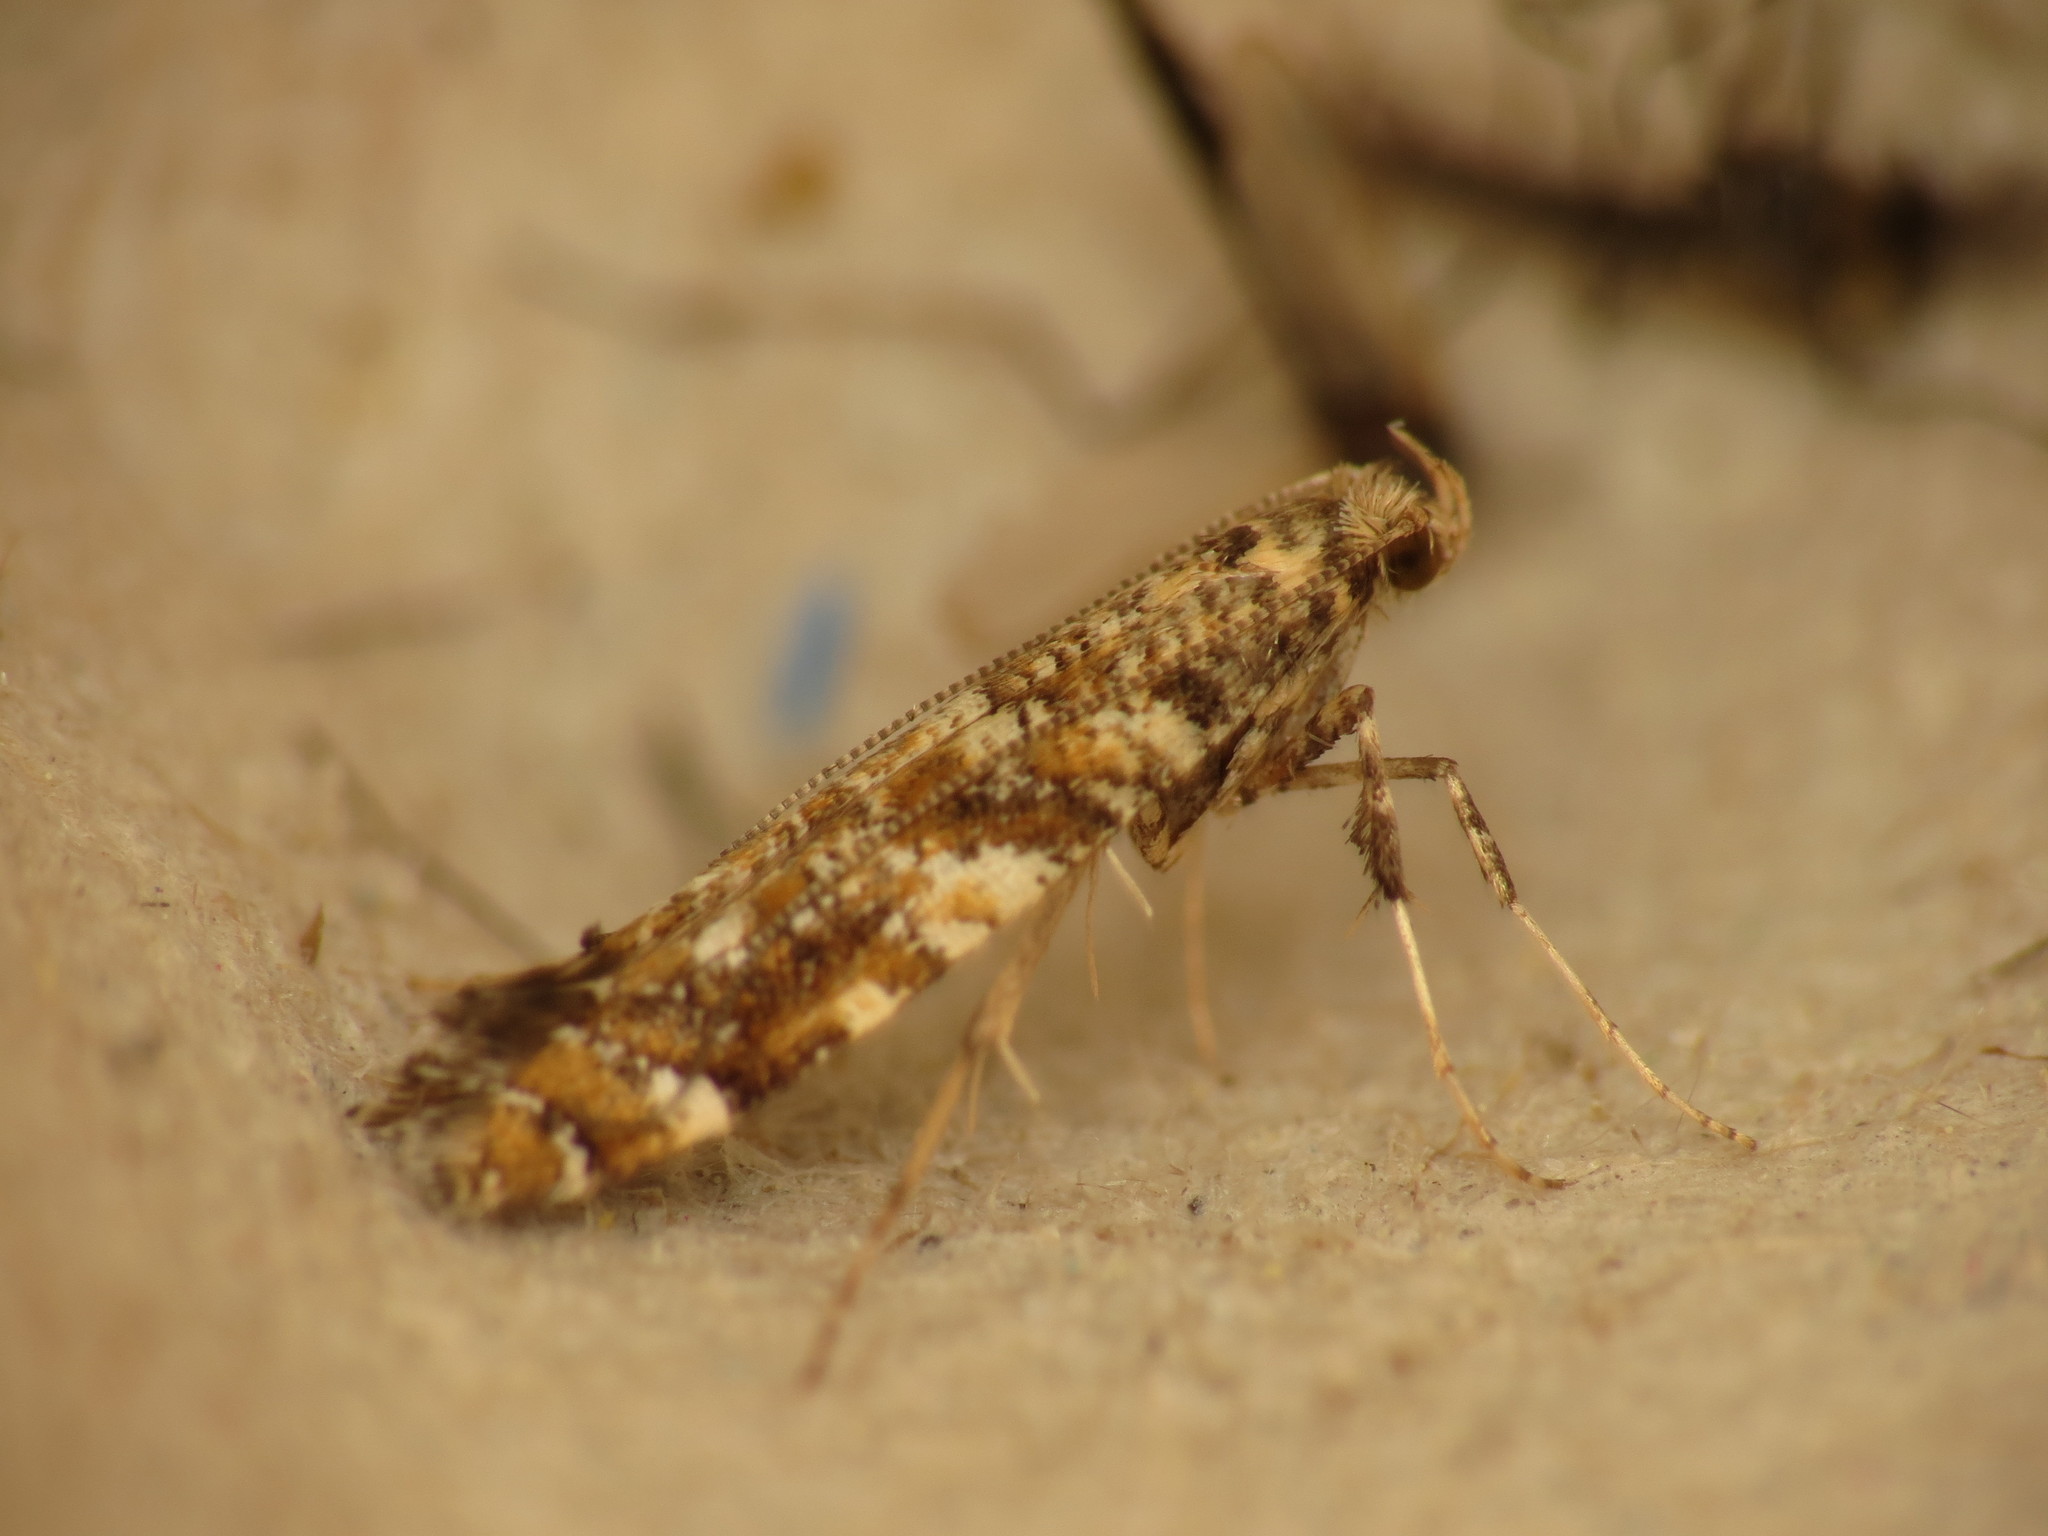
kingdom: Animalia
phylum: Arthropoda
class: Insecta
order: Lepidoptera
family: Gracillariidae
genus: Gracillaria
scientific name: Gracillaria syringella
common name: Common slender
